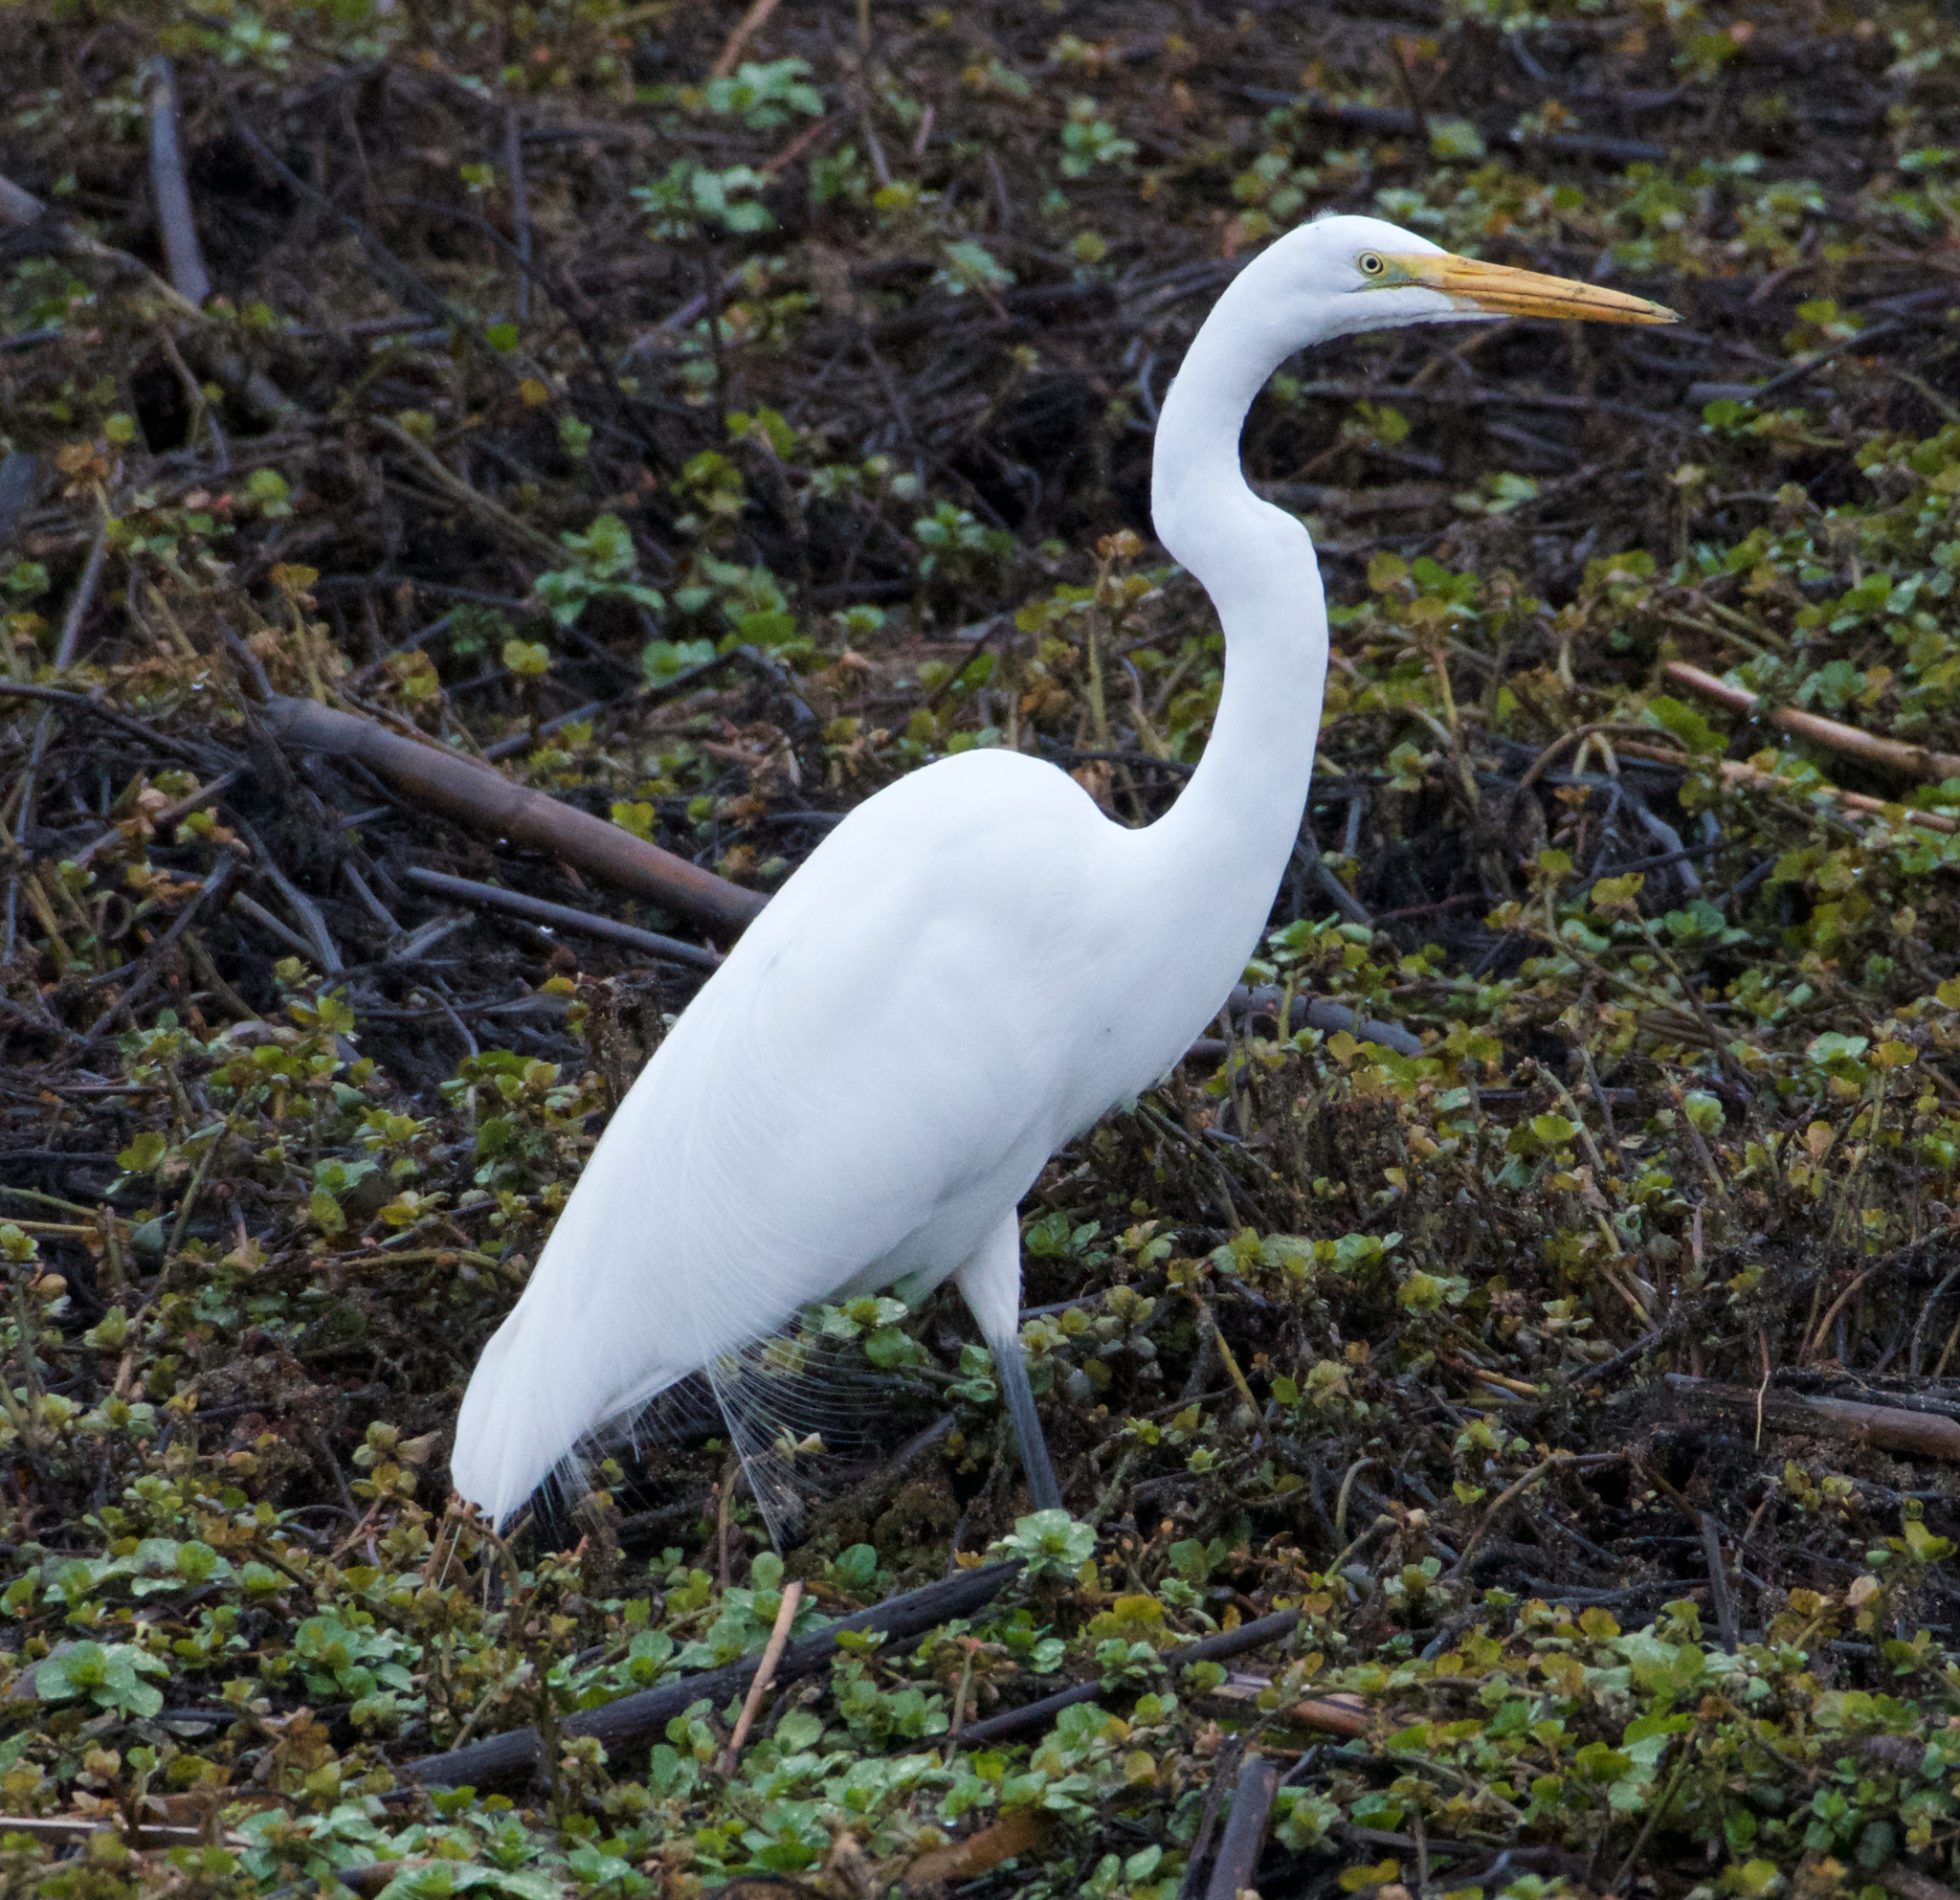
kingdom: Animalia
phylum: Chordata
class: Aves
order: Pelecaniformes
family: Ardeidae
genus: Ardea
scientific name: Ardea alba
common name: Great egret
